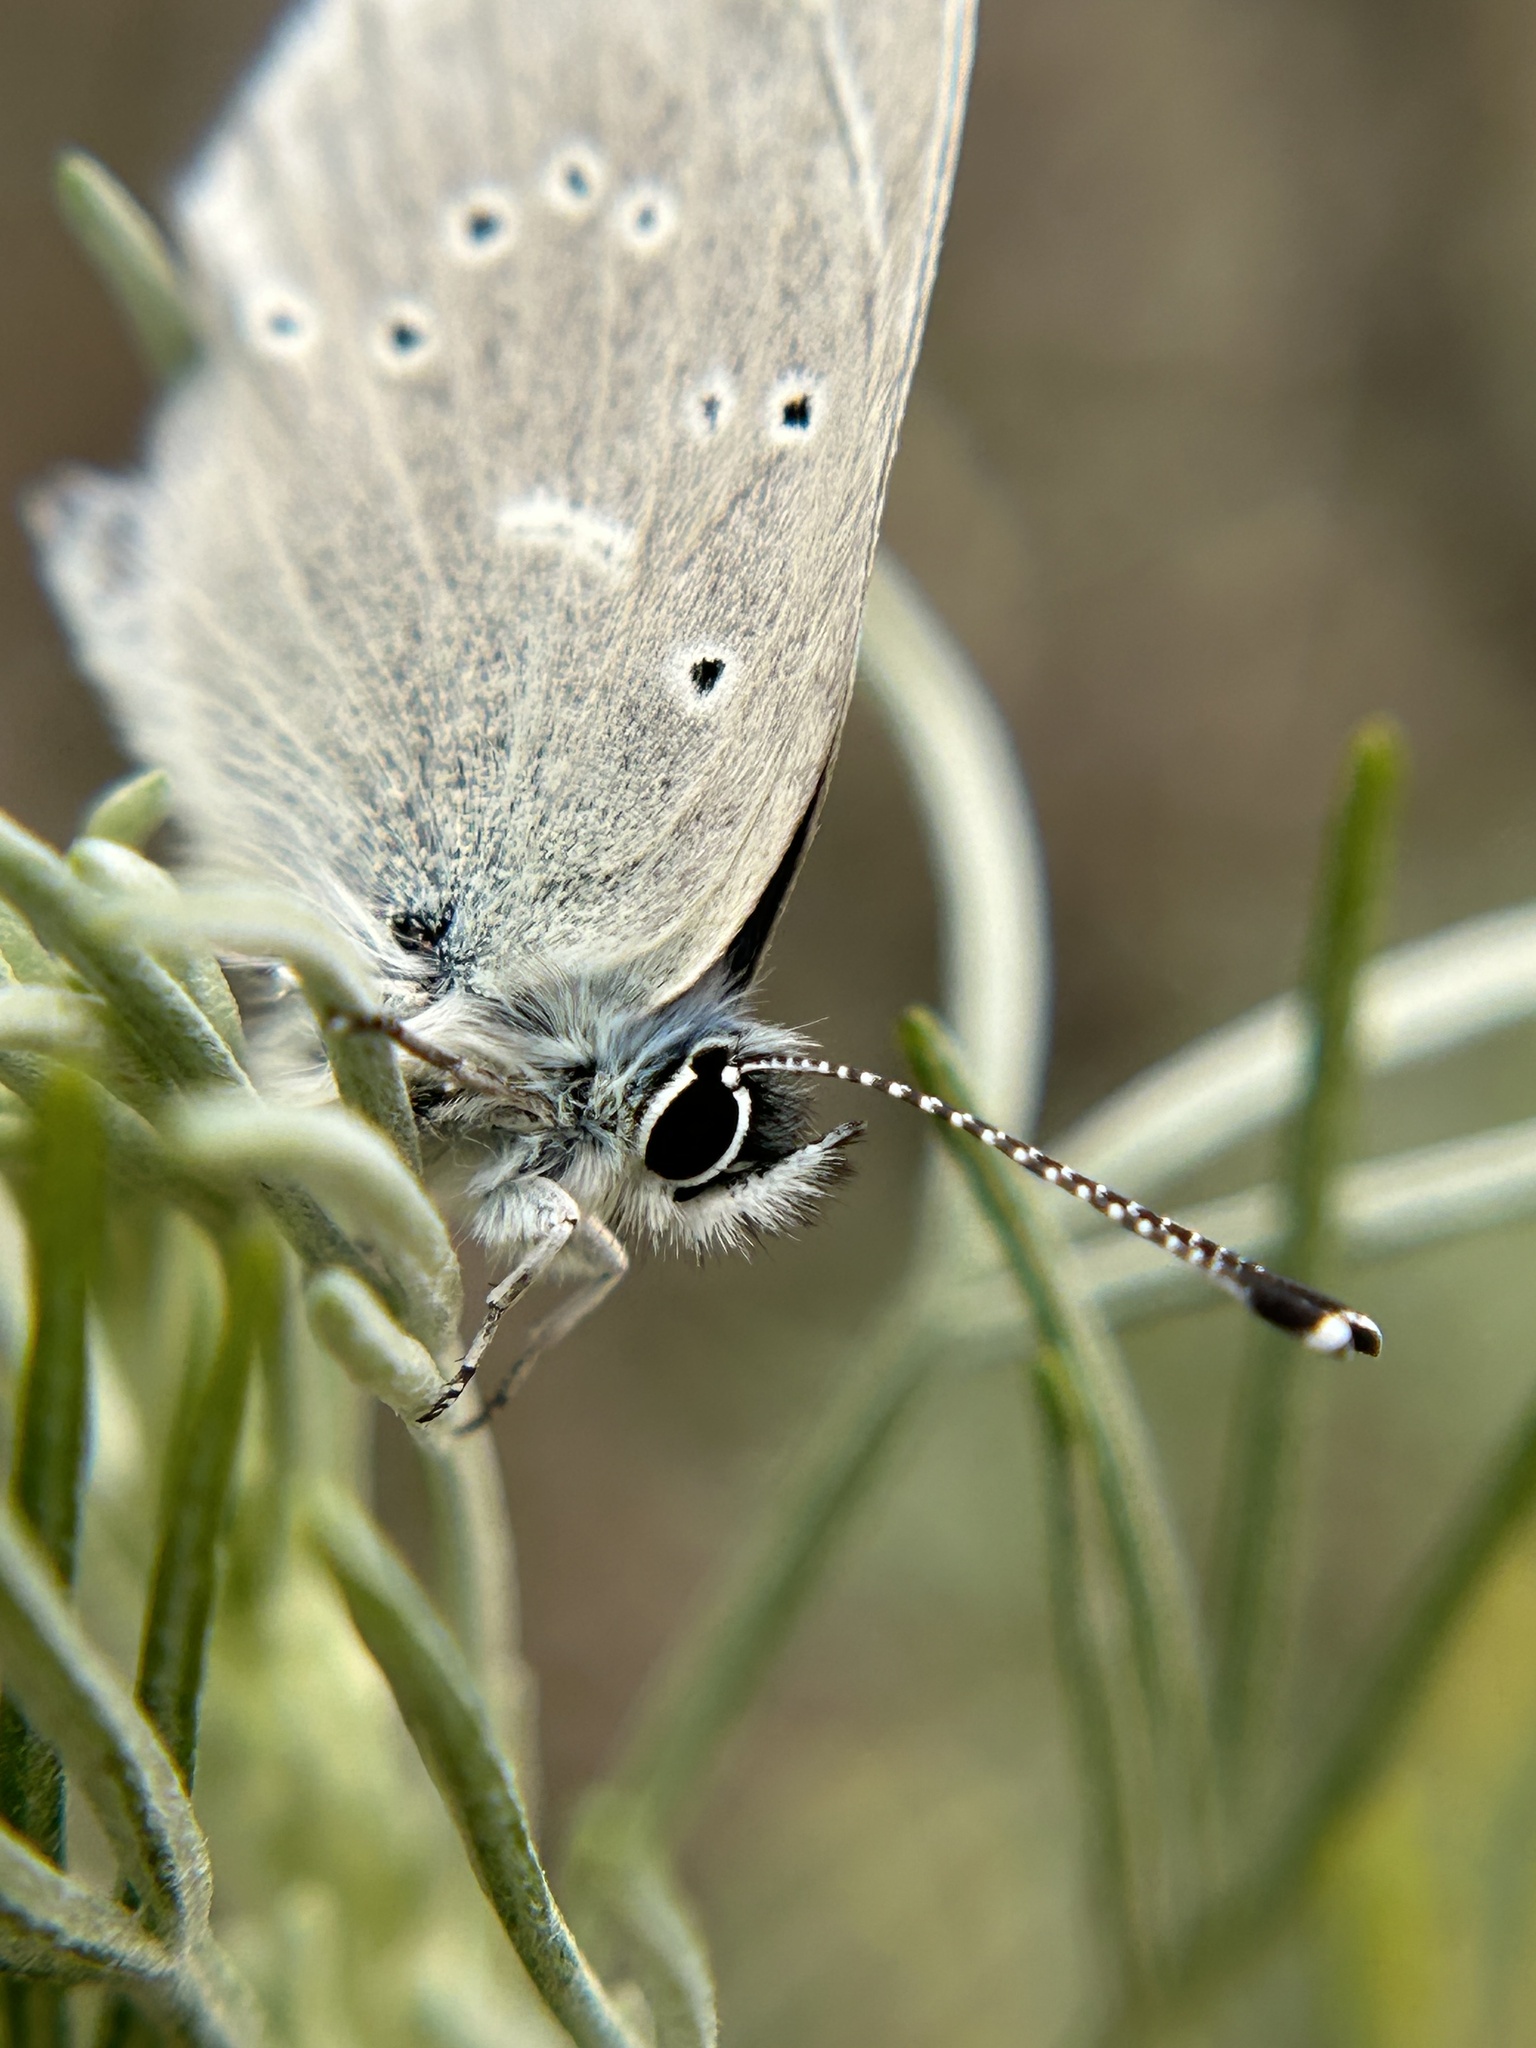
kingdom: Animalia
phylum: Arthropoda
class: Insecta
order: Lepidoptera
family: Lycaenidae
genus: Glaucopsyche
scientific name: Glaucopsyche lygdamus
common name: Silvery blue
